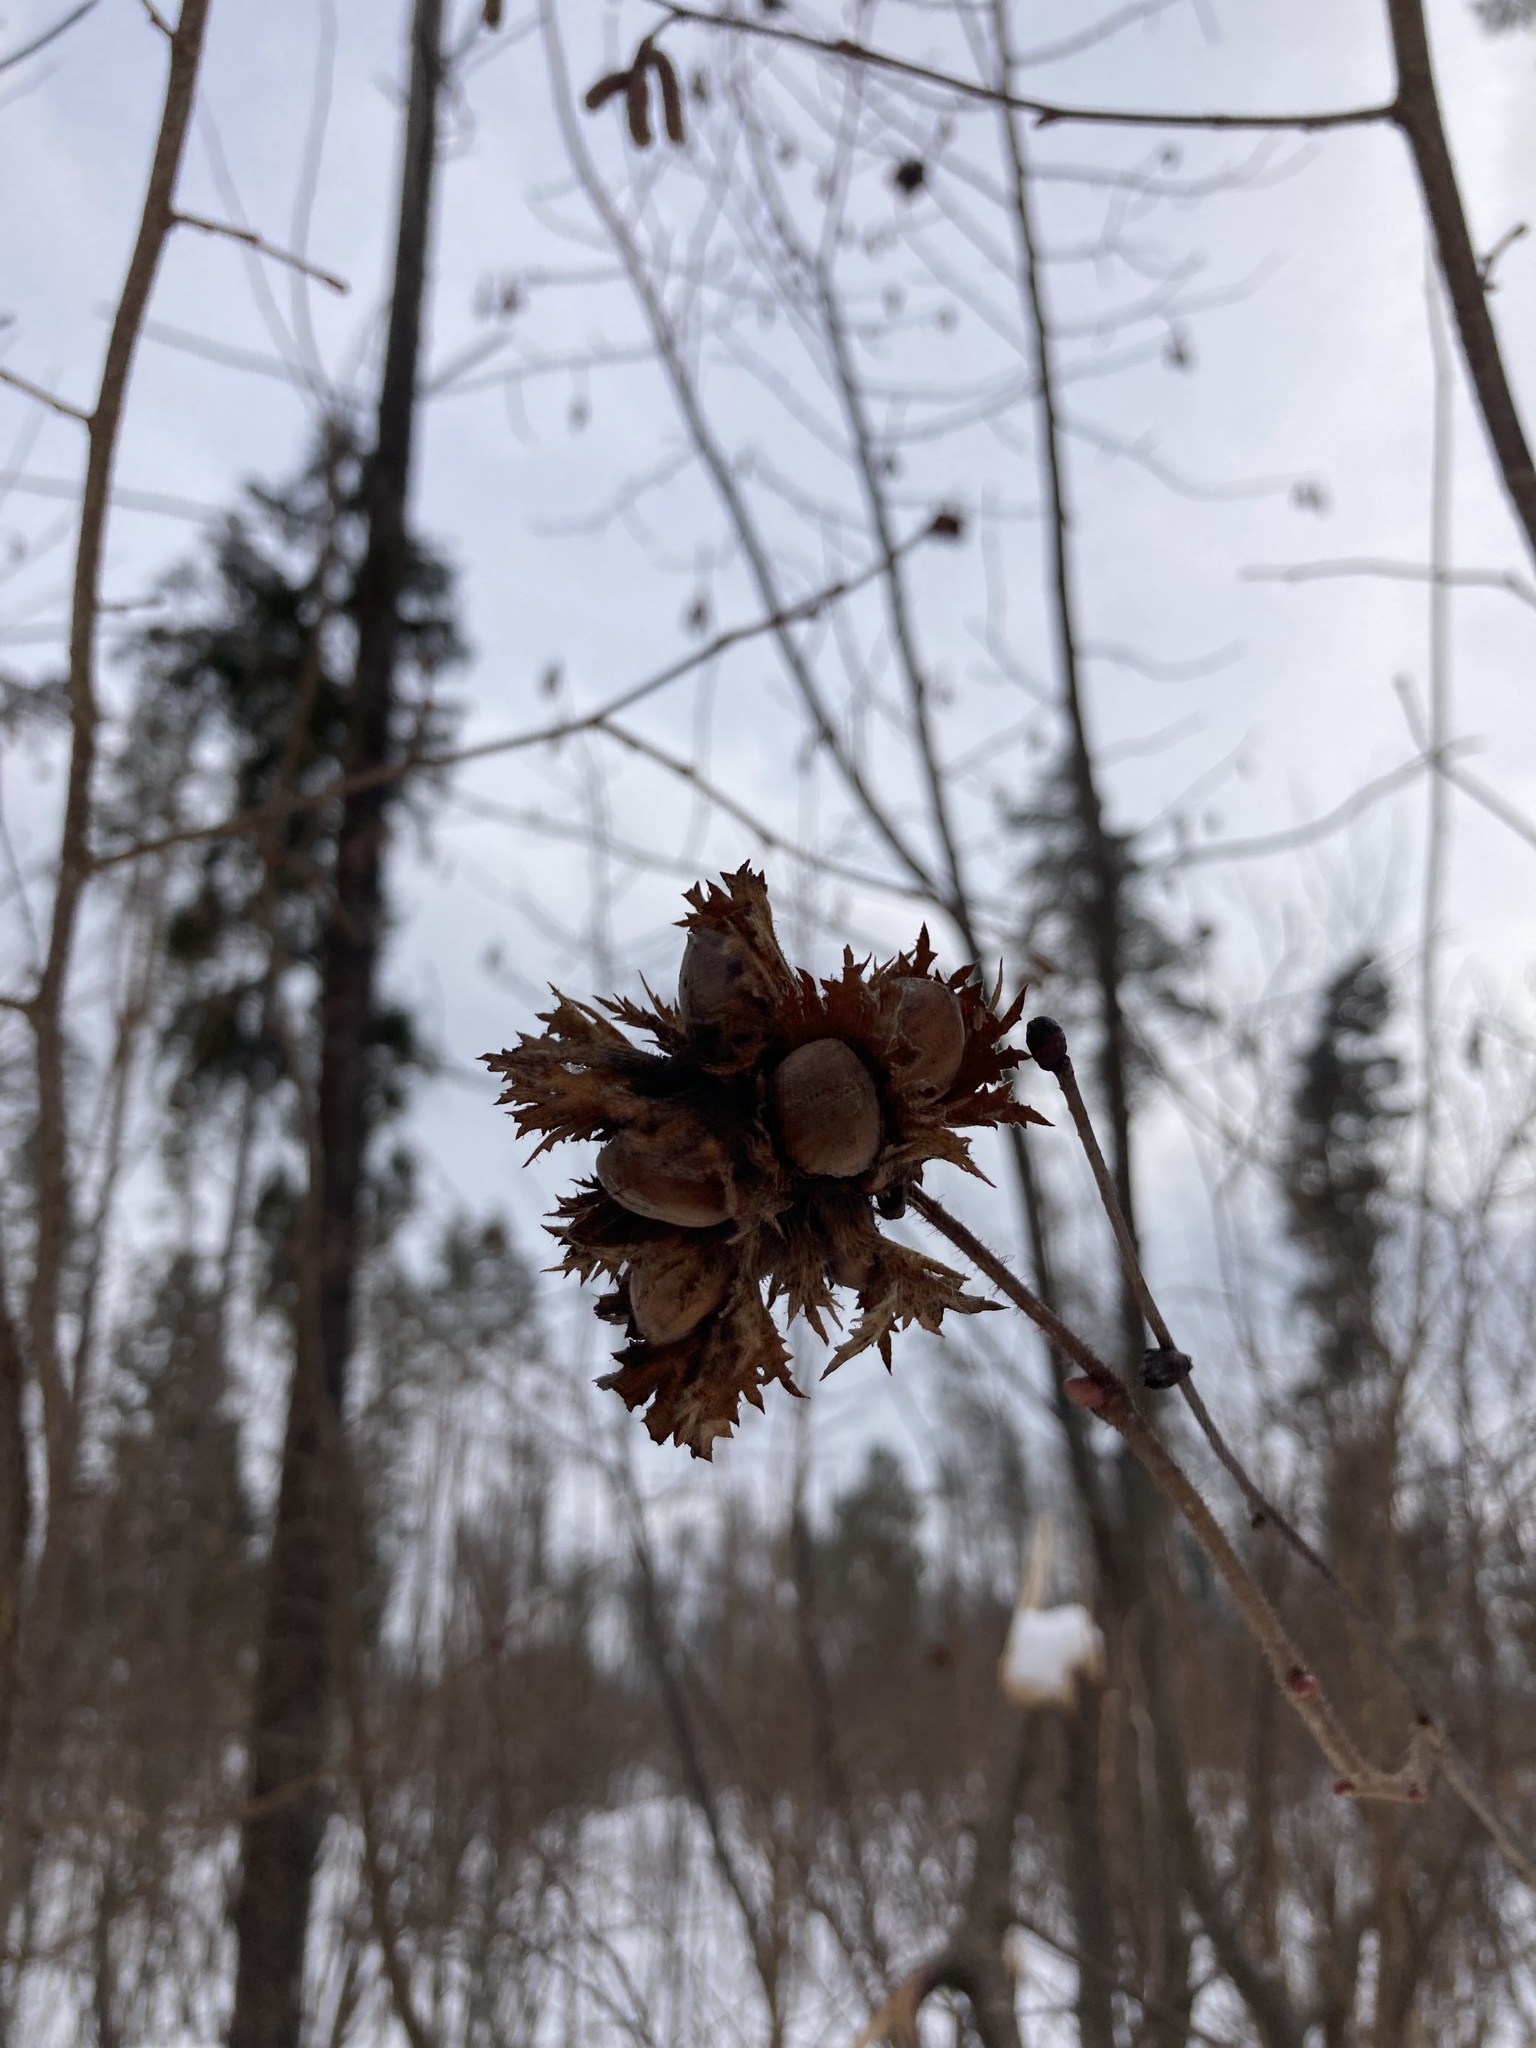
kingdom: Plantae
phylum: Tracheophyta
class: Magnoliopsida
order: Fagales
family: Betulaceae
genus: Corylus
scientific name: Corylus avellana
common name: European hazel
